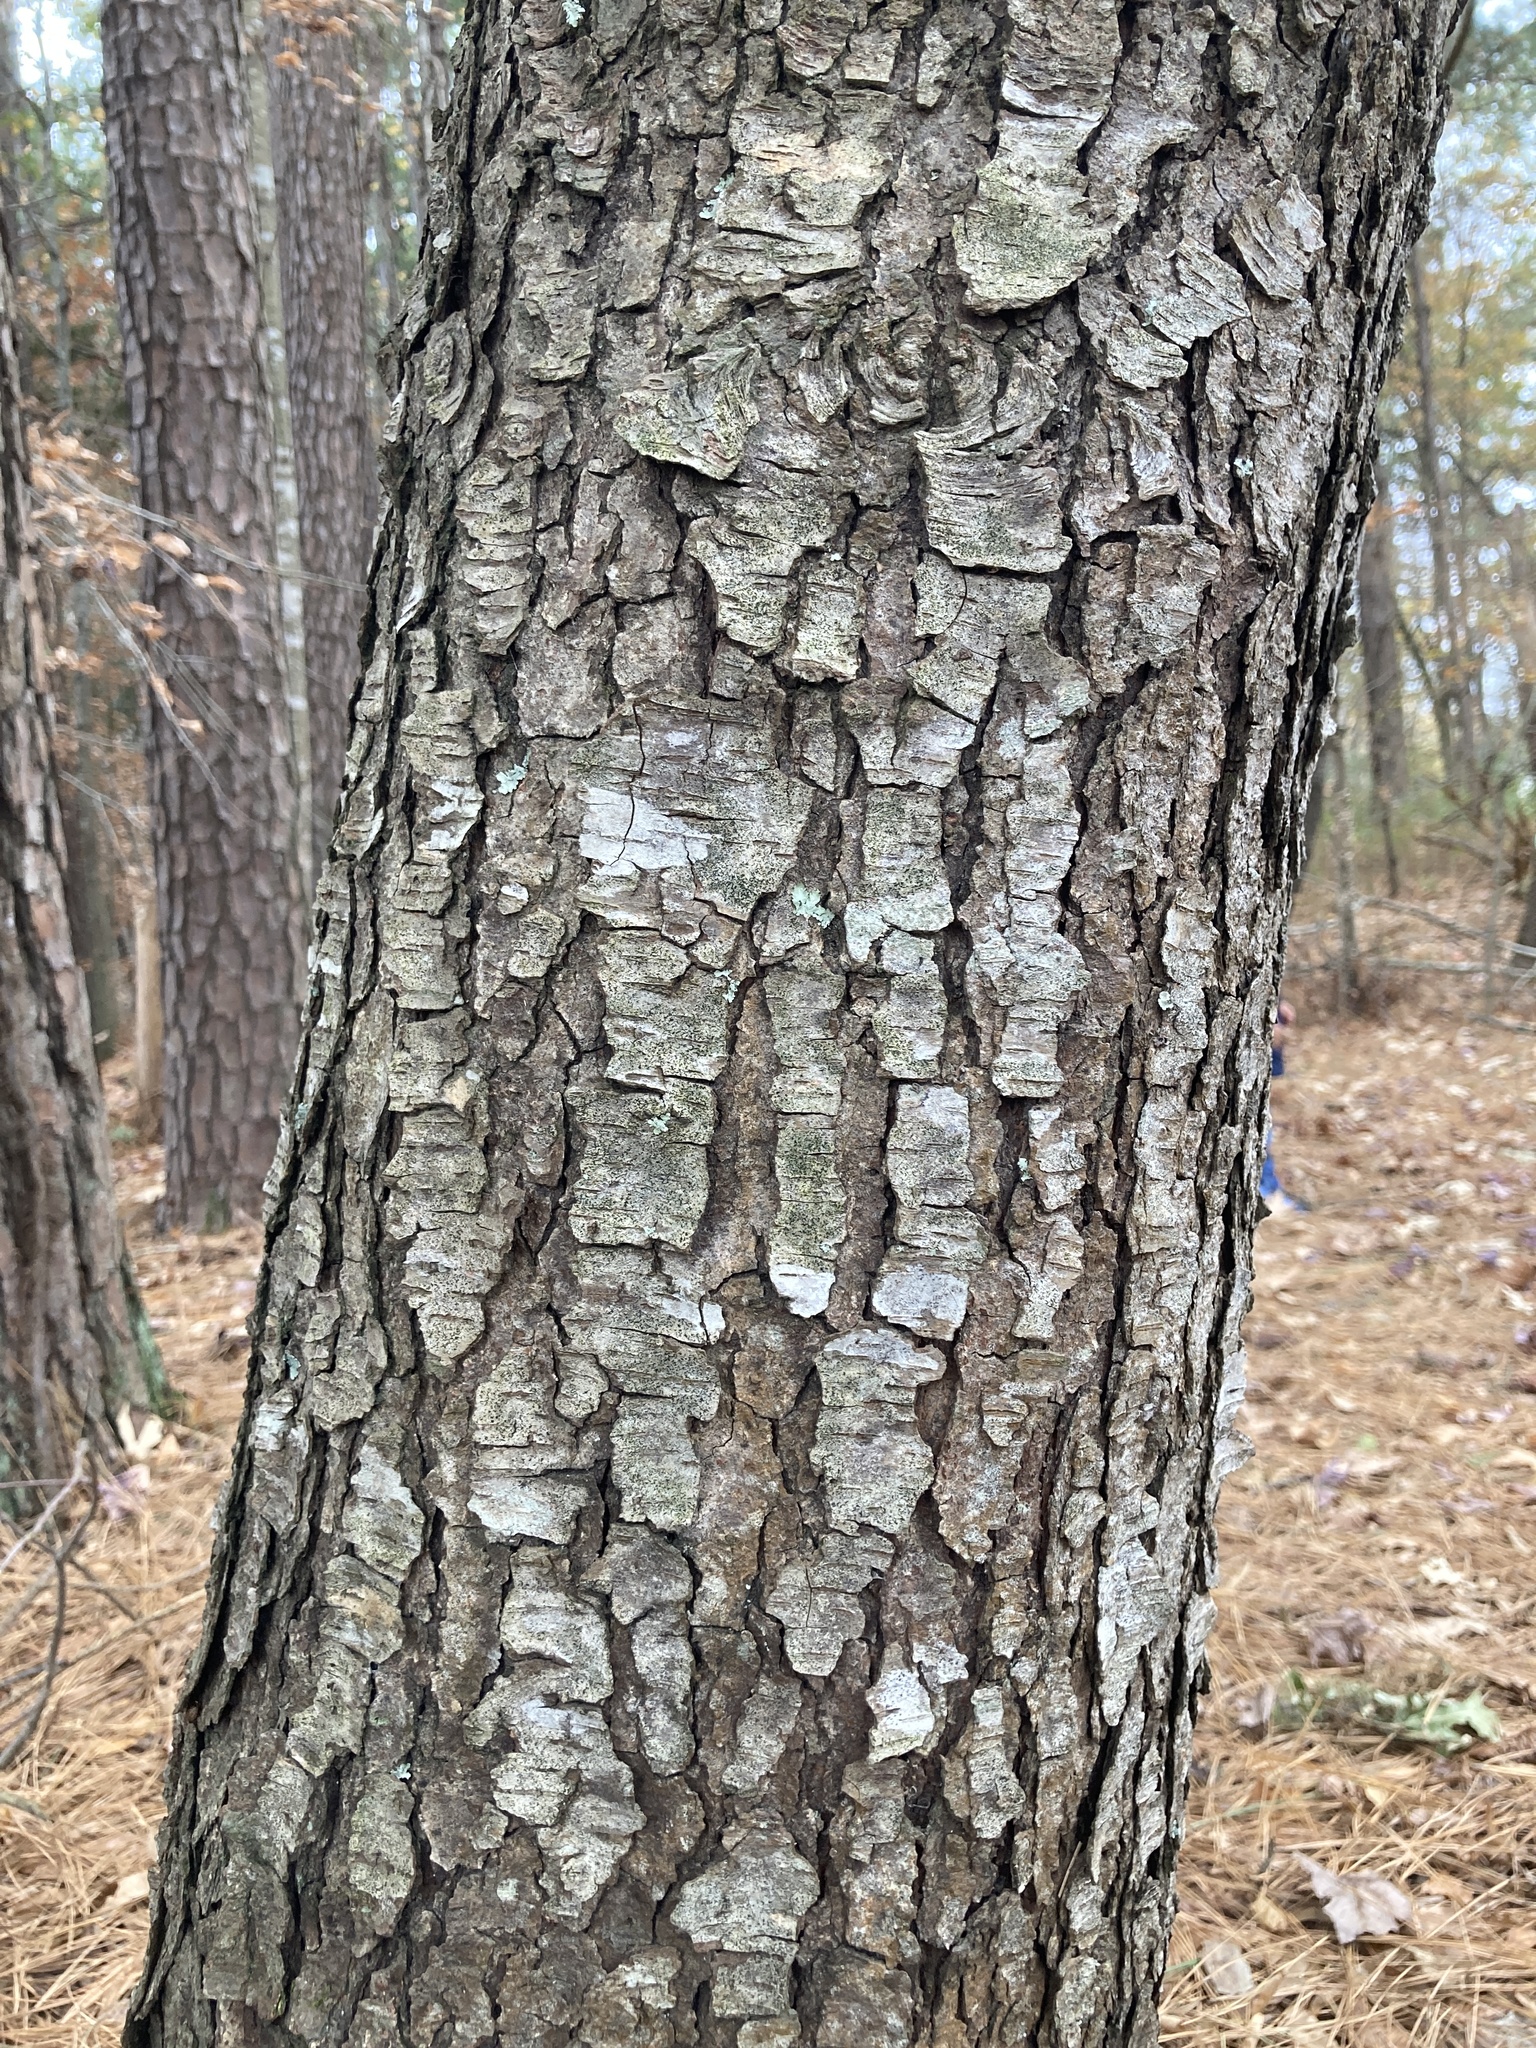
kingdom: Plantae
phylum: Tracheophyta
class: Magnoliopsida
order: Rosales
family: Rosaceae
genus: Prunus
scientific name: Prunus serotina
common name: Black cherry
